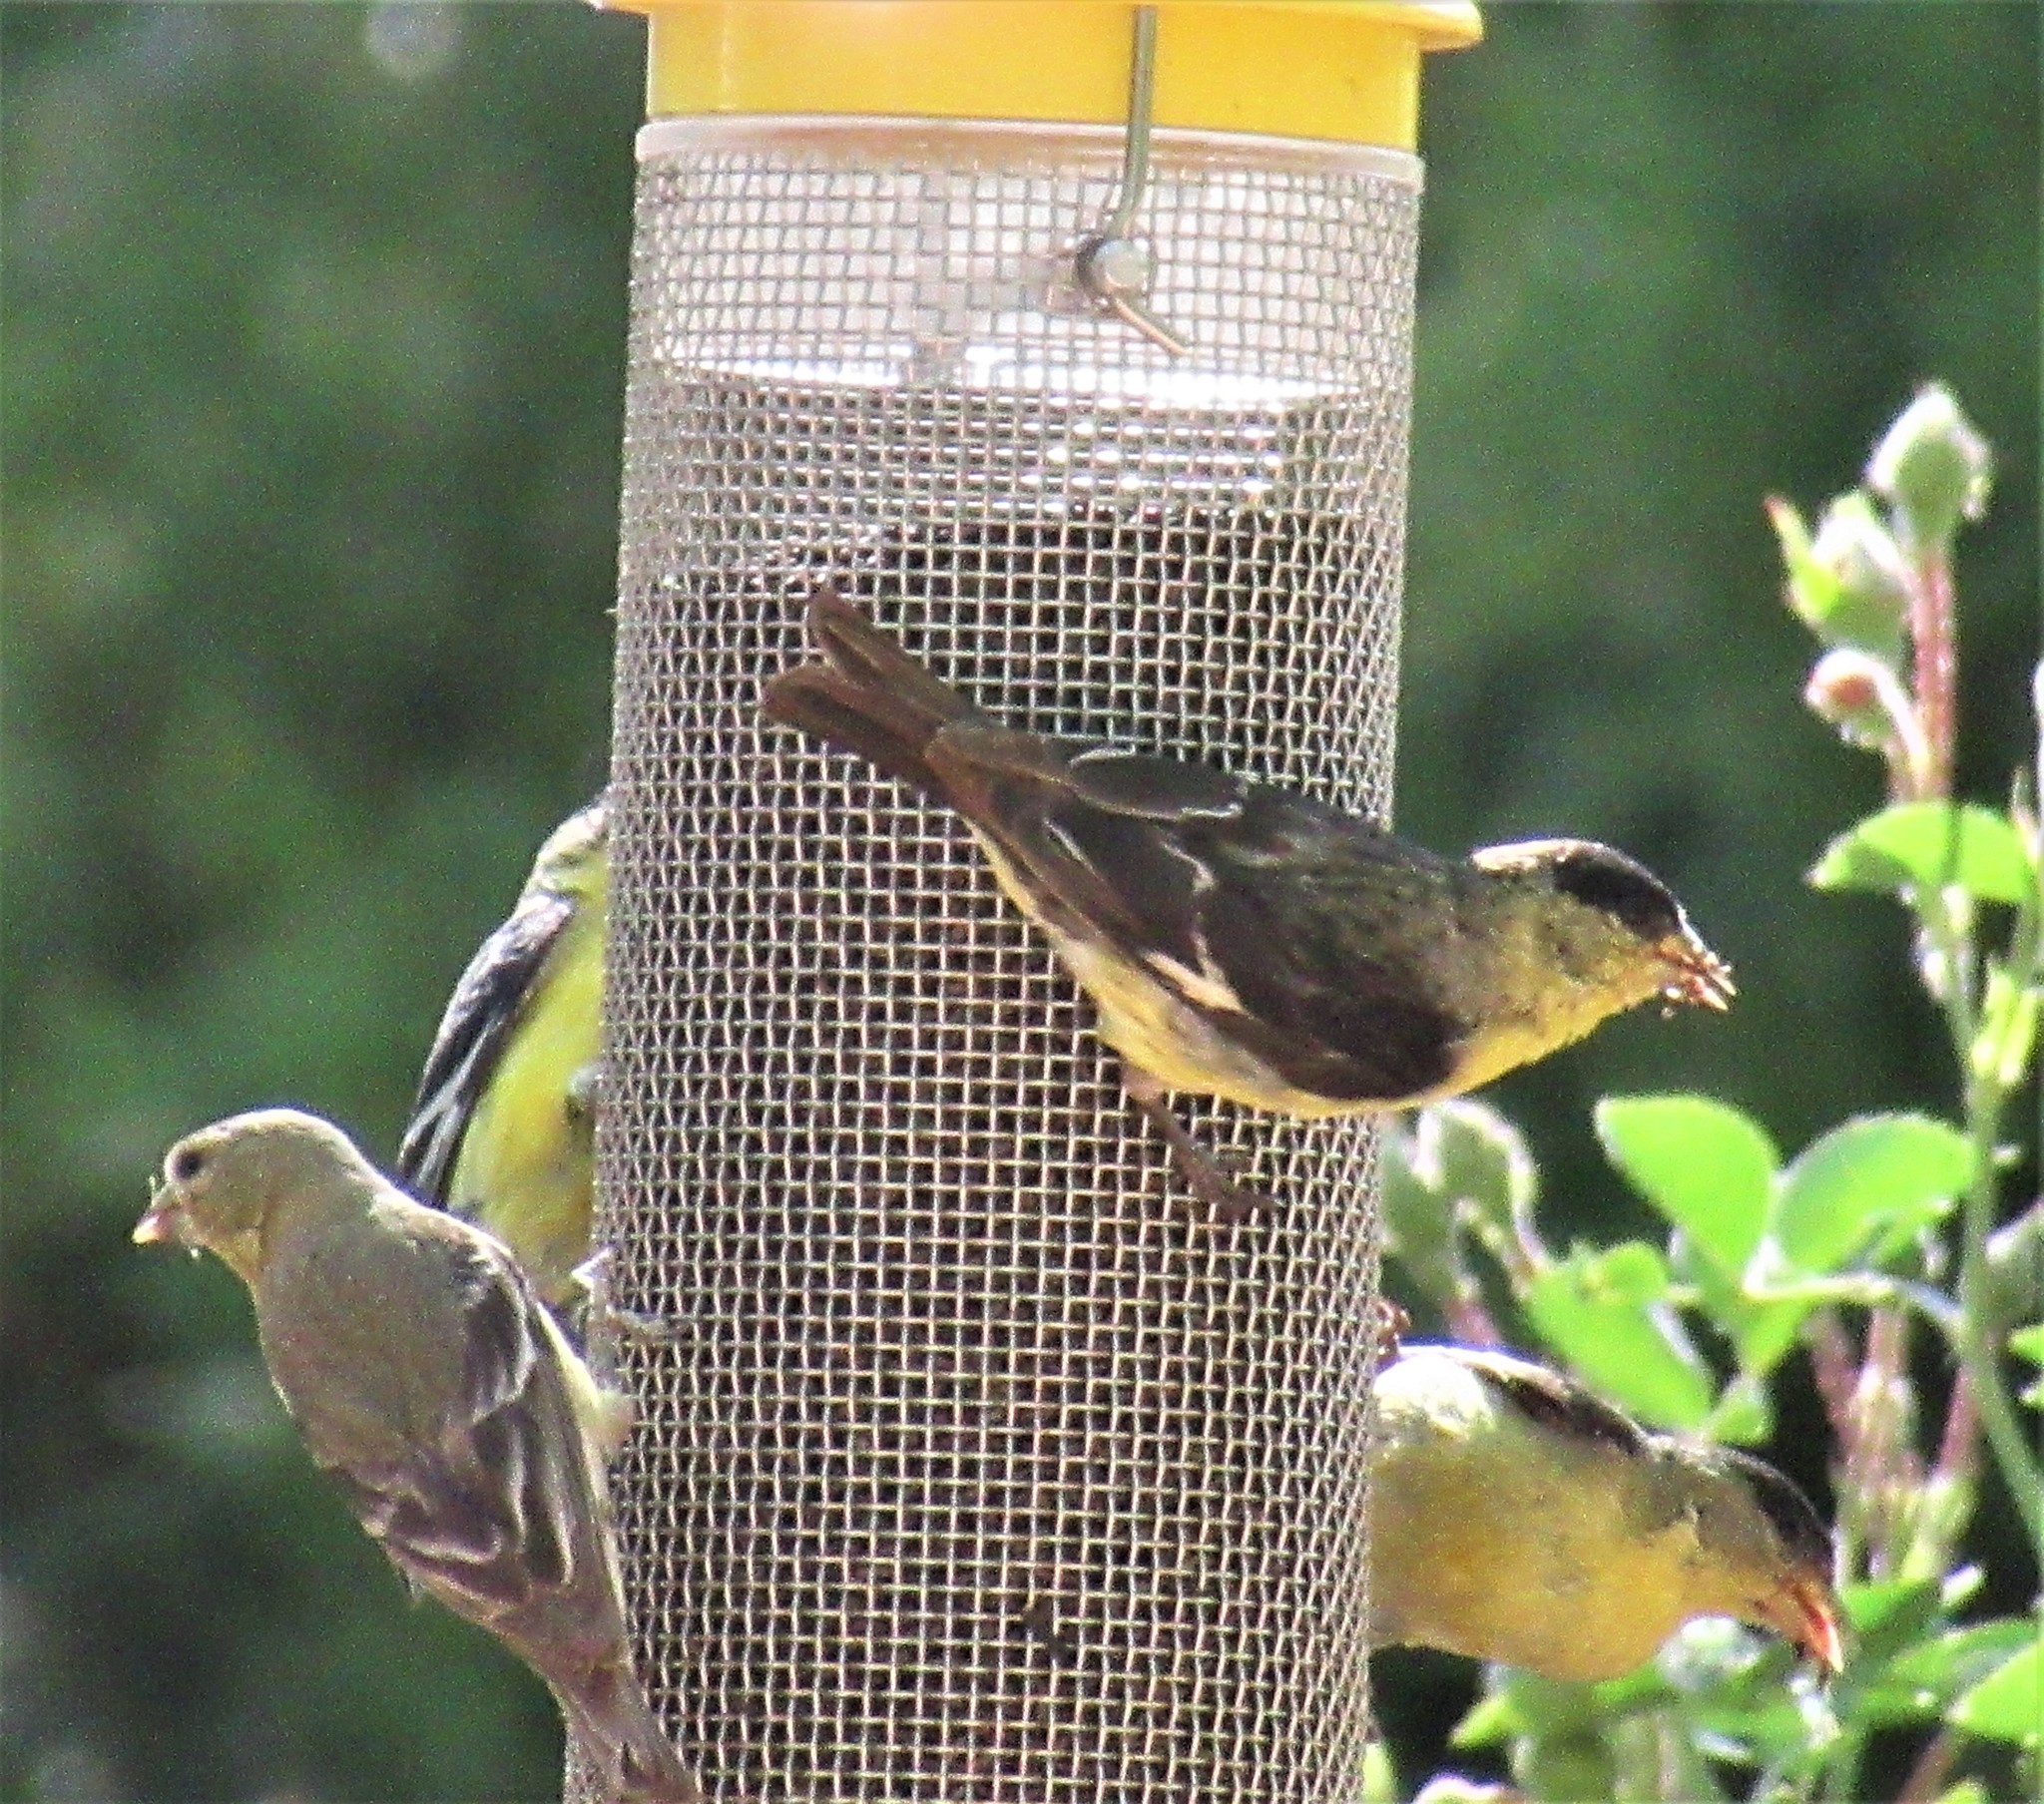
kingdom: Animalia
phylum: Chordata
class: Aves
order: Passeriformes
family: Fringillidae
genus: Spinus
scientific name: Spinus psaltria
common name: Lesser goldfinch
